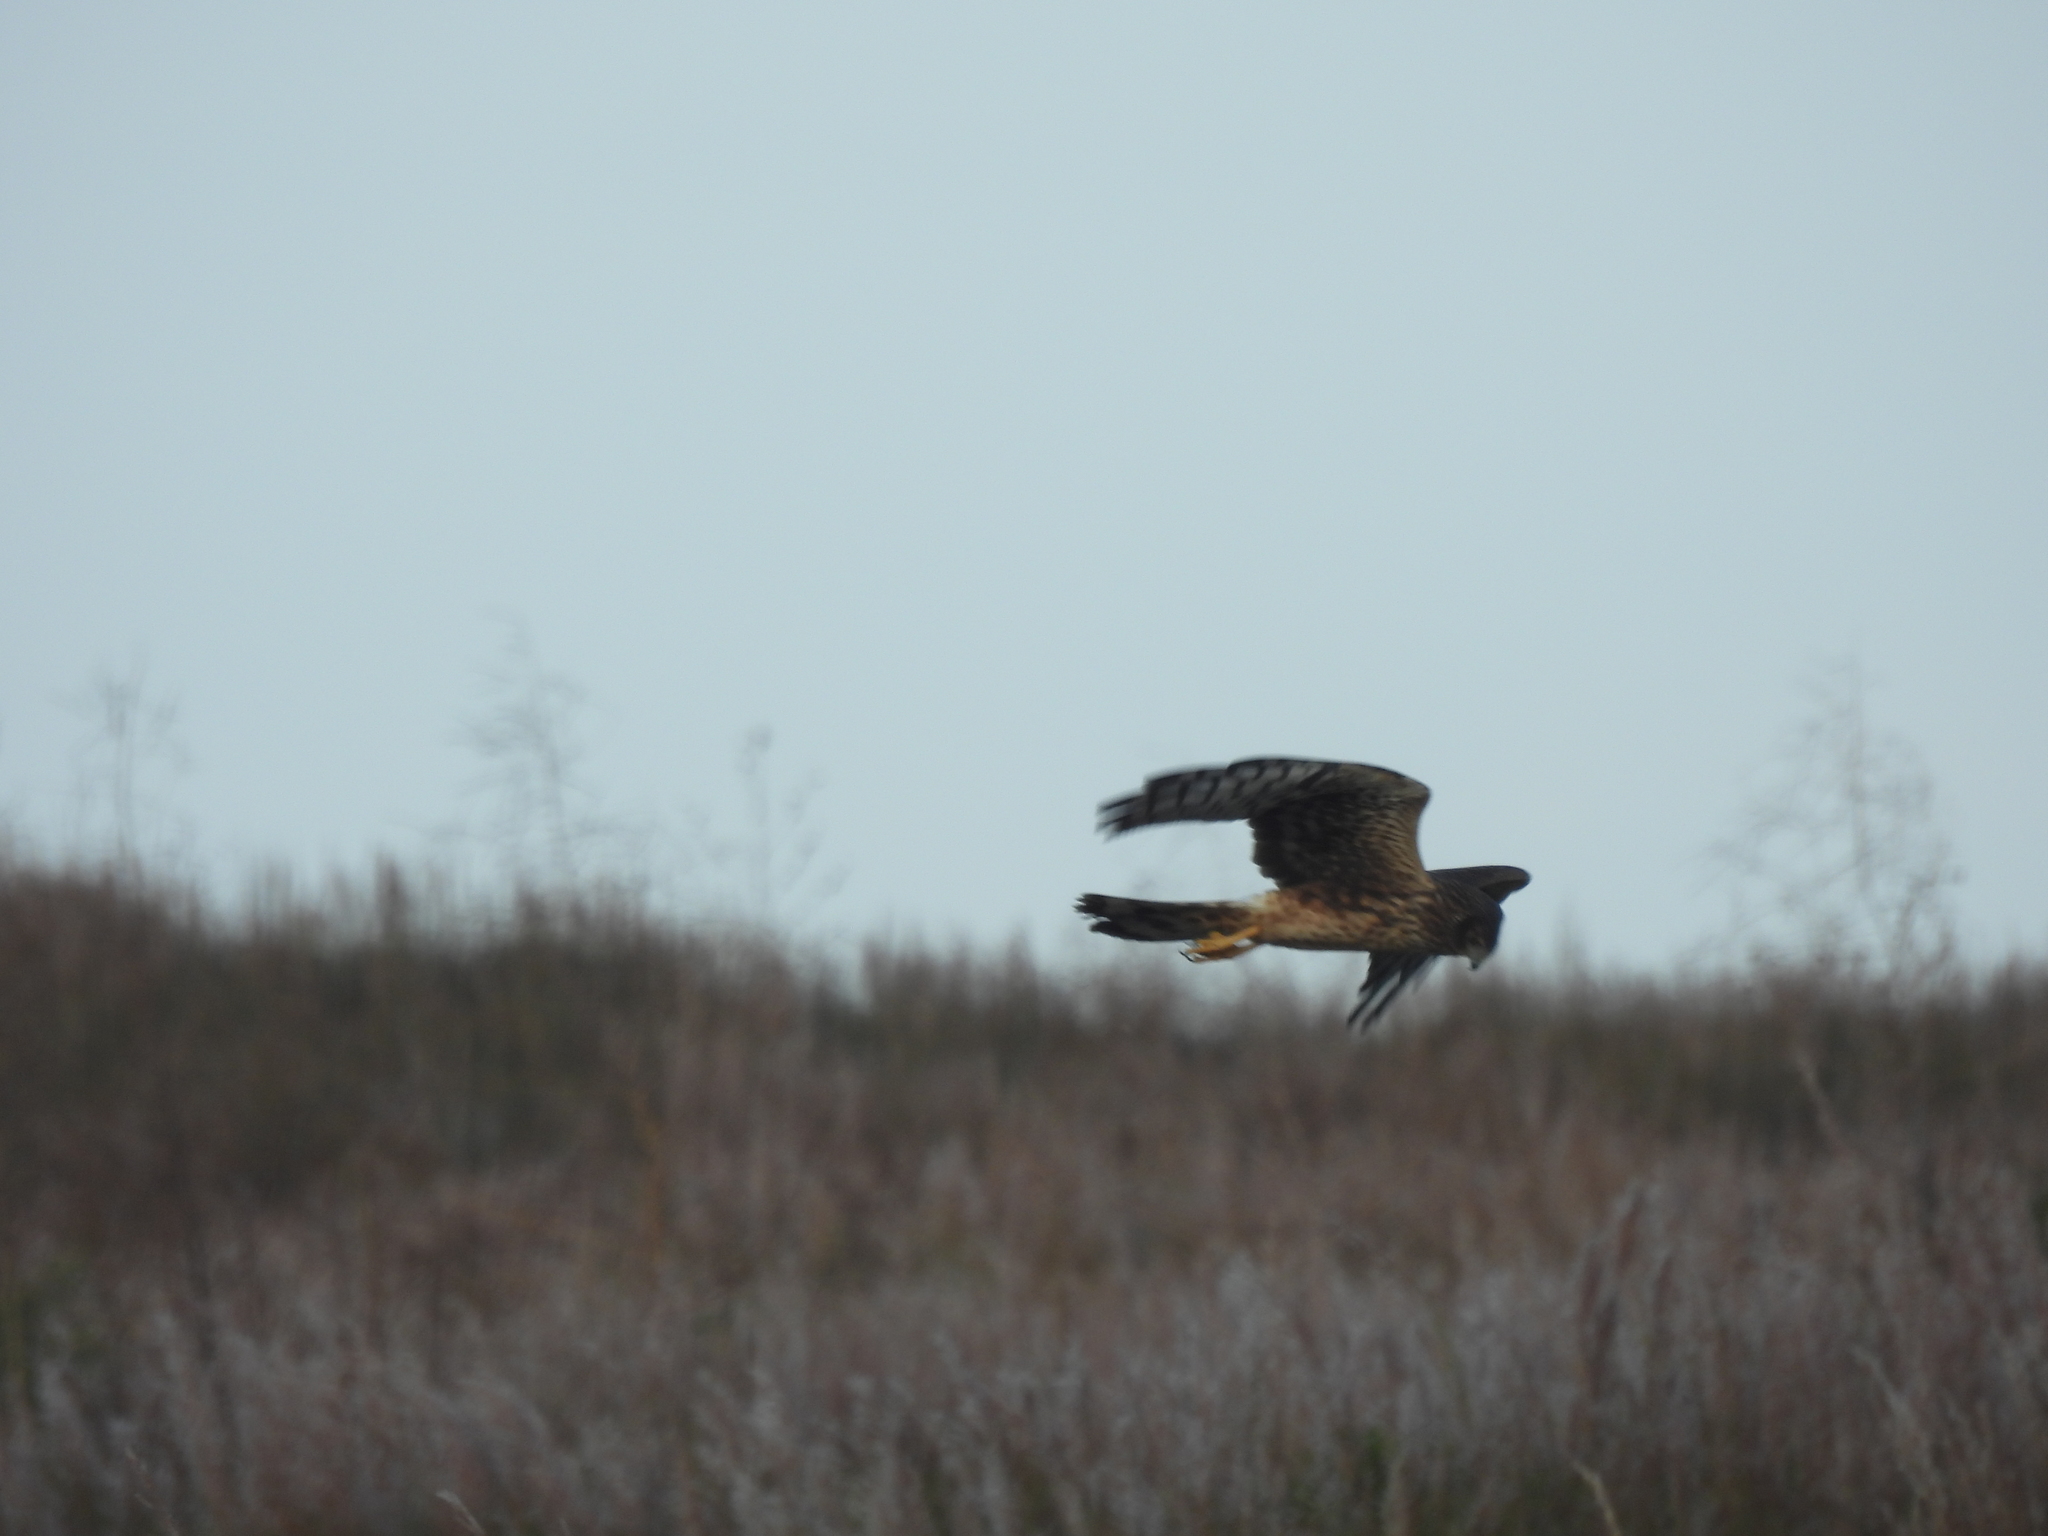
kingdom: Animalia
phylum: Chordata
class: Aves
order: Accipitriformes
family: Accipitridae
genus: Circus
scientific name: Circus cyaneus
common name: Hen harrier
